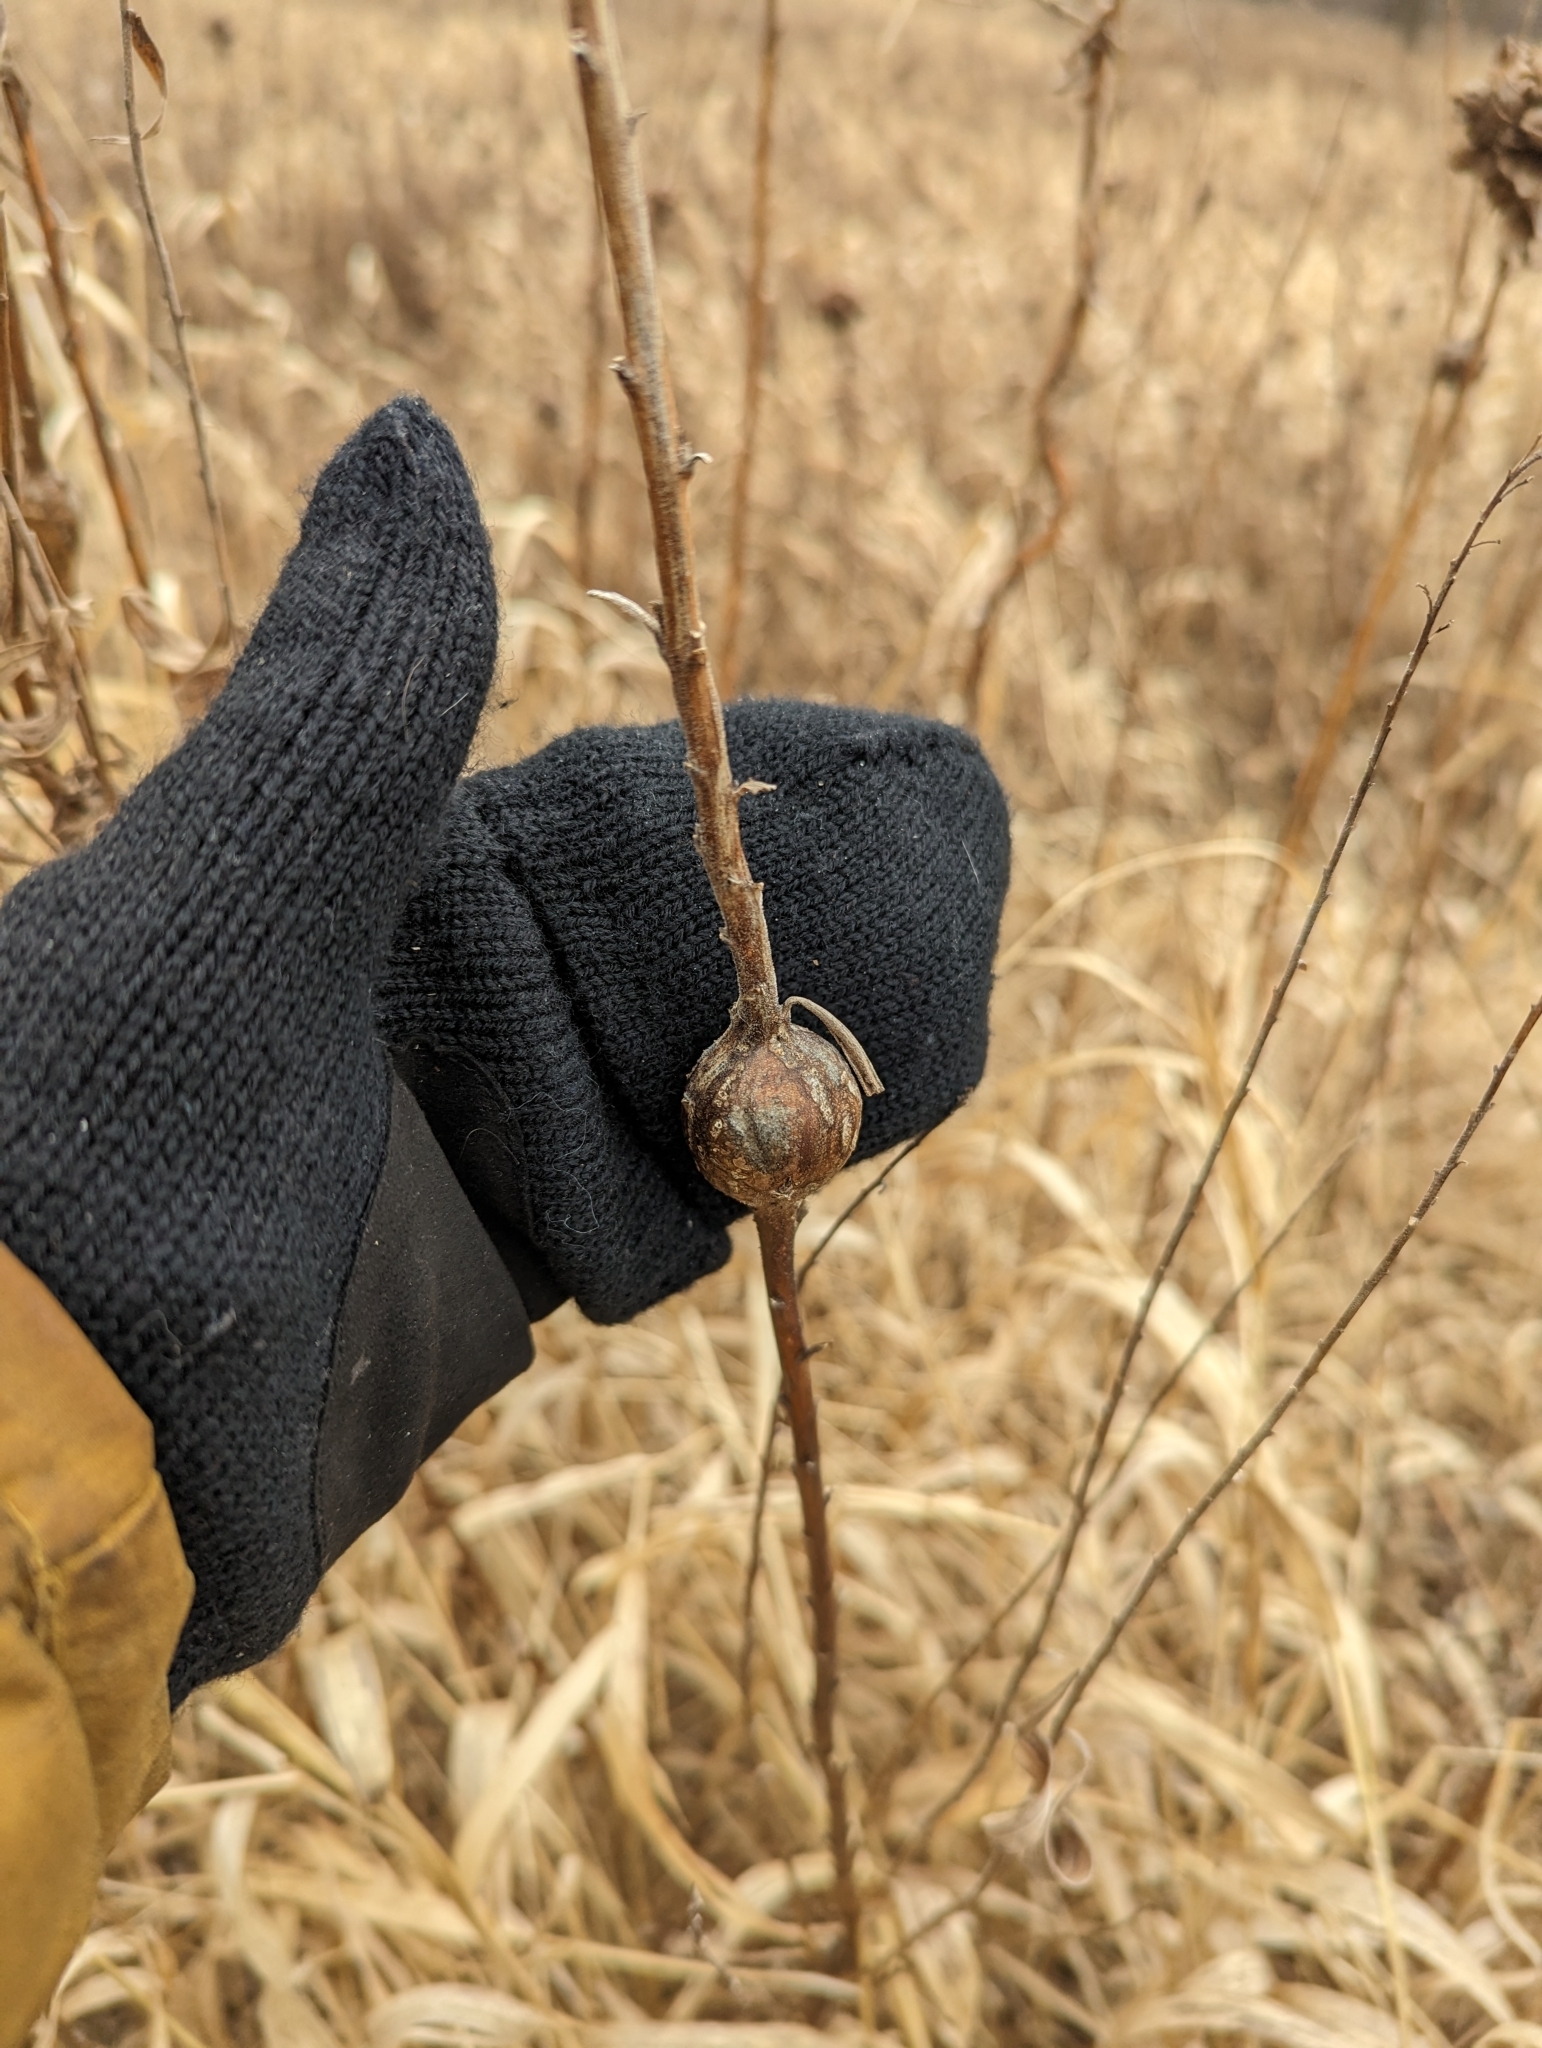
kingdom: Animalia
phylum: Arthropoda
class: Insecta
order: Diptera
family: Tephritidae
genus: Eurosta
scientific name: Eurosta solidaginis
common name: Goldenrod gall fly
